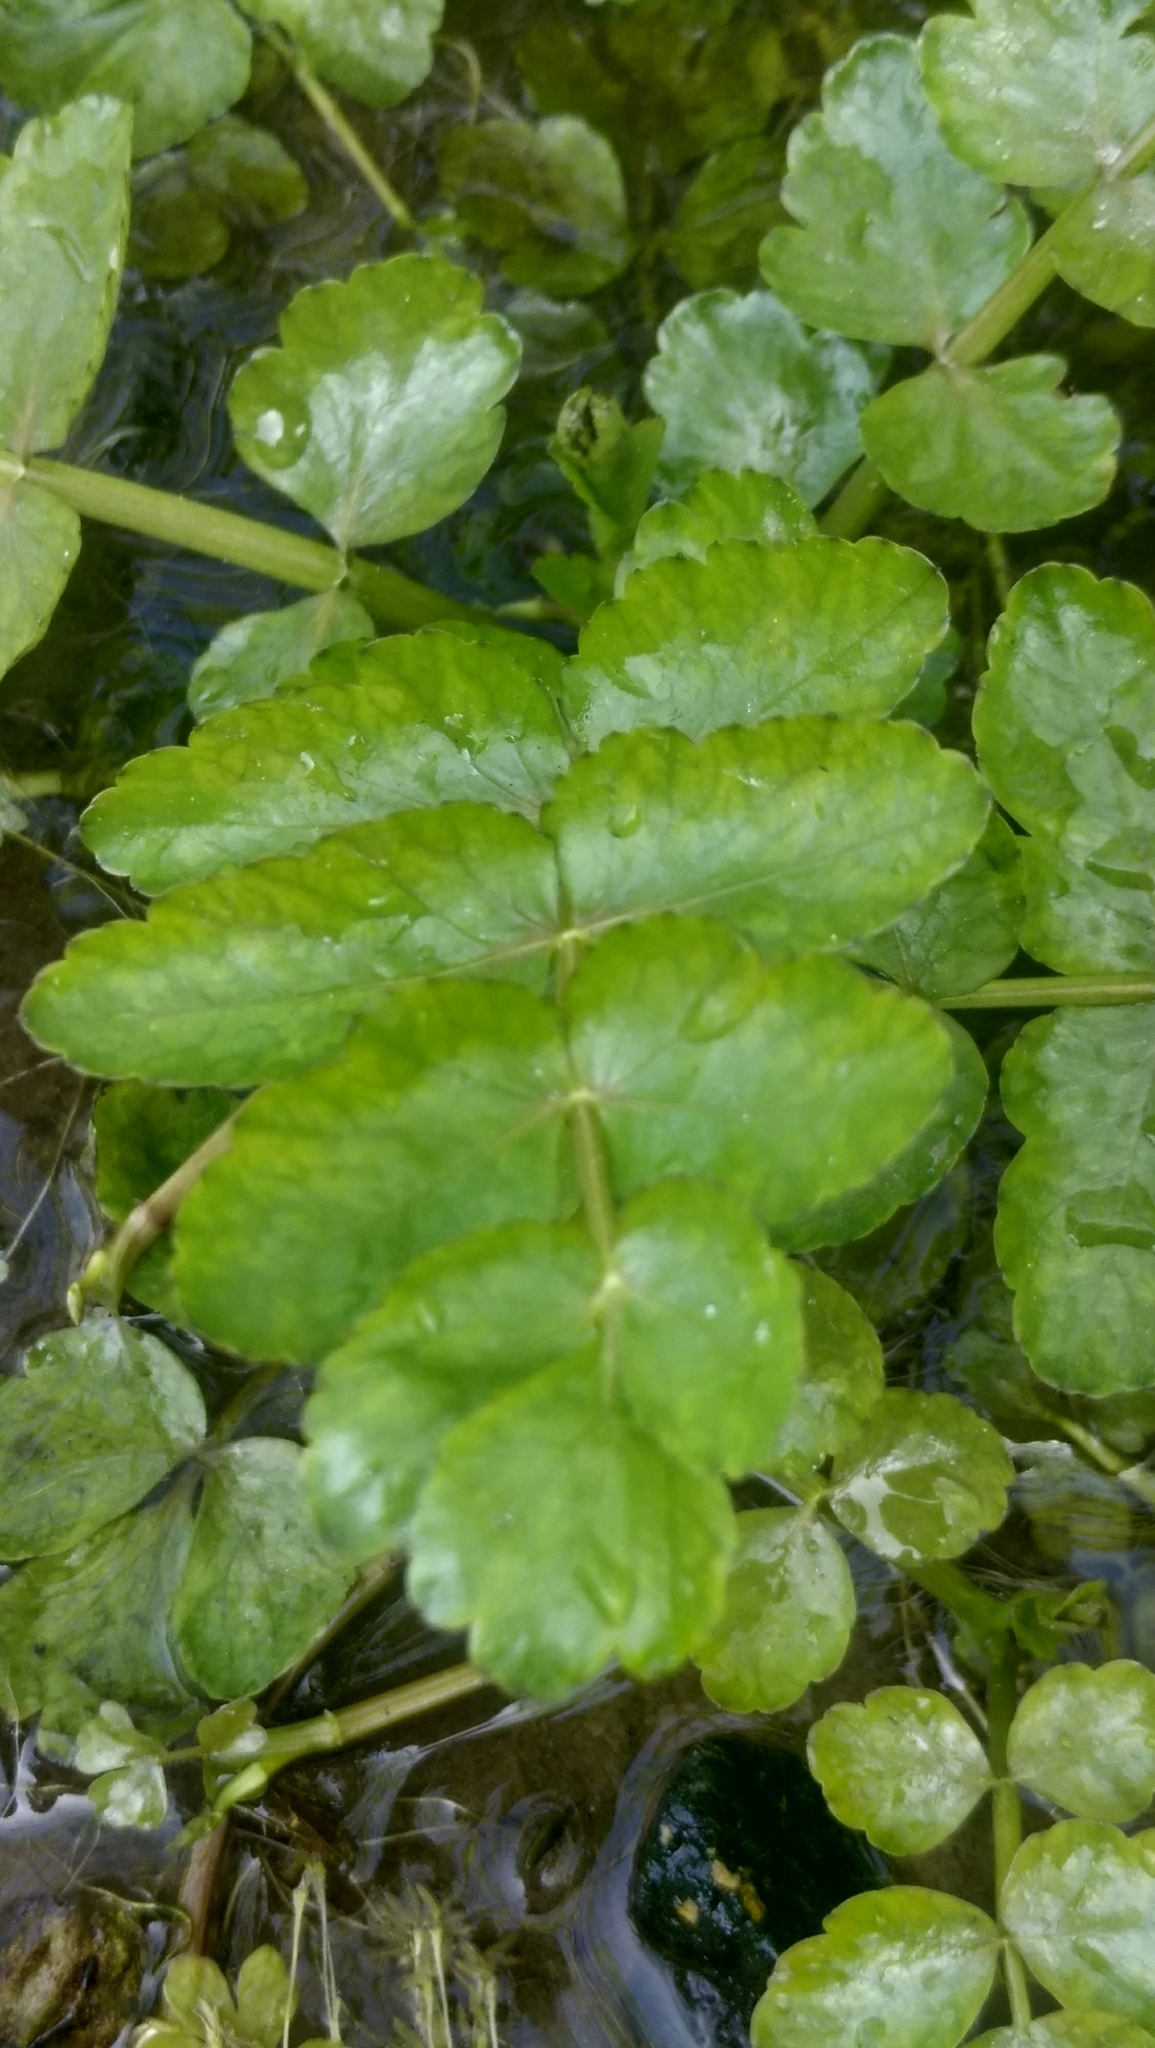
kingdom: Plantae
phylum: Tracheophyta
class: Magnoliopsida
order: Apiales
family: Apiaceae
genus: Berula
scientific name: Berula erecta
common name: Lesser water-parsnip
